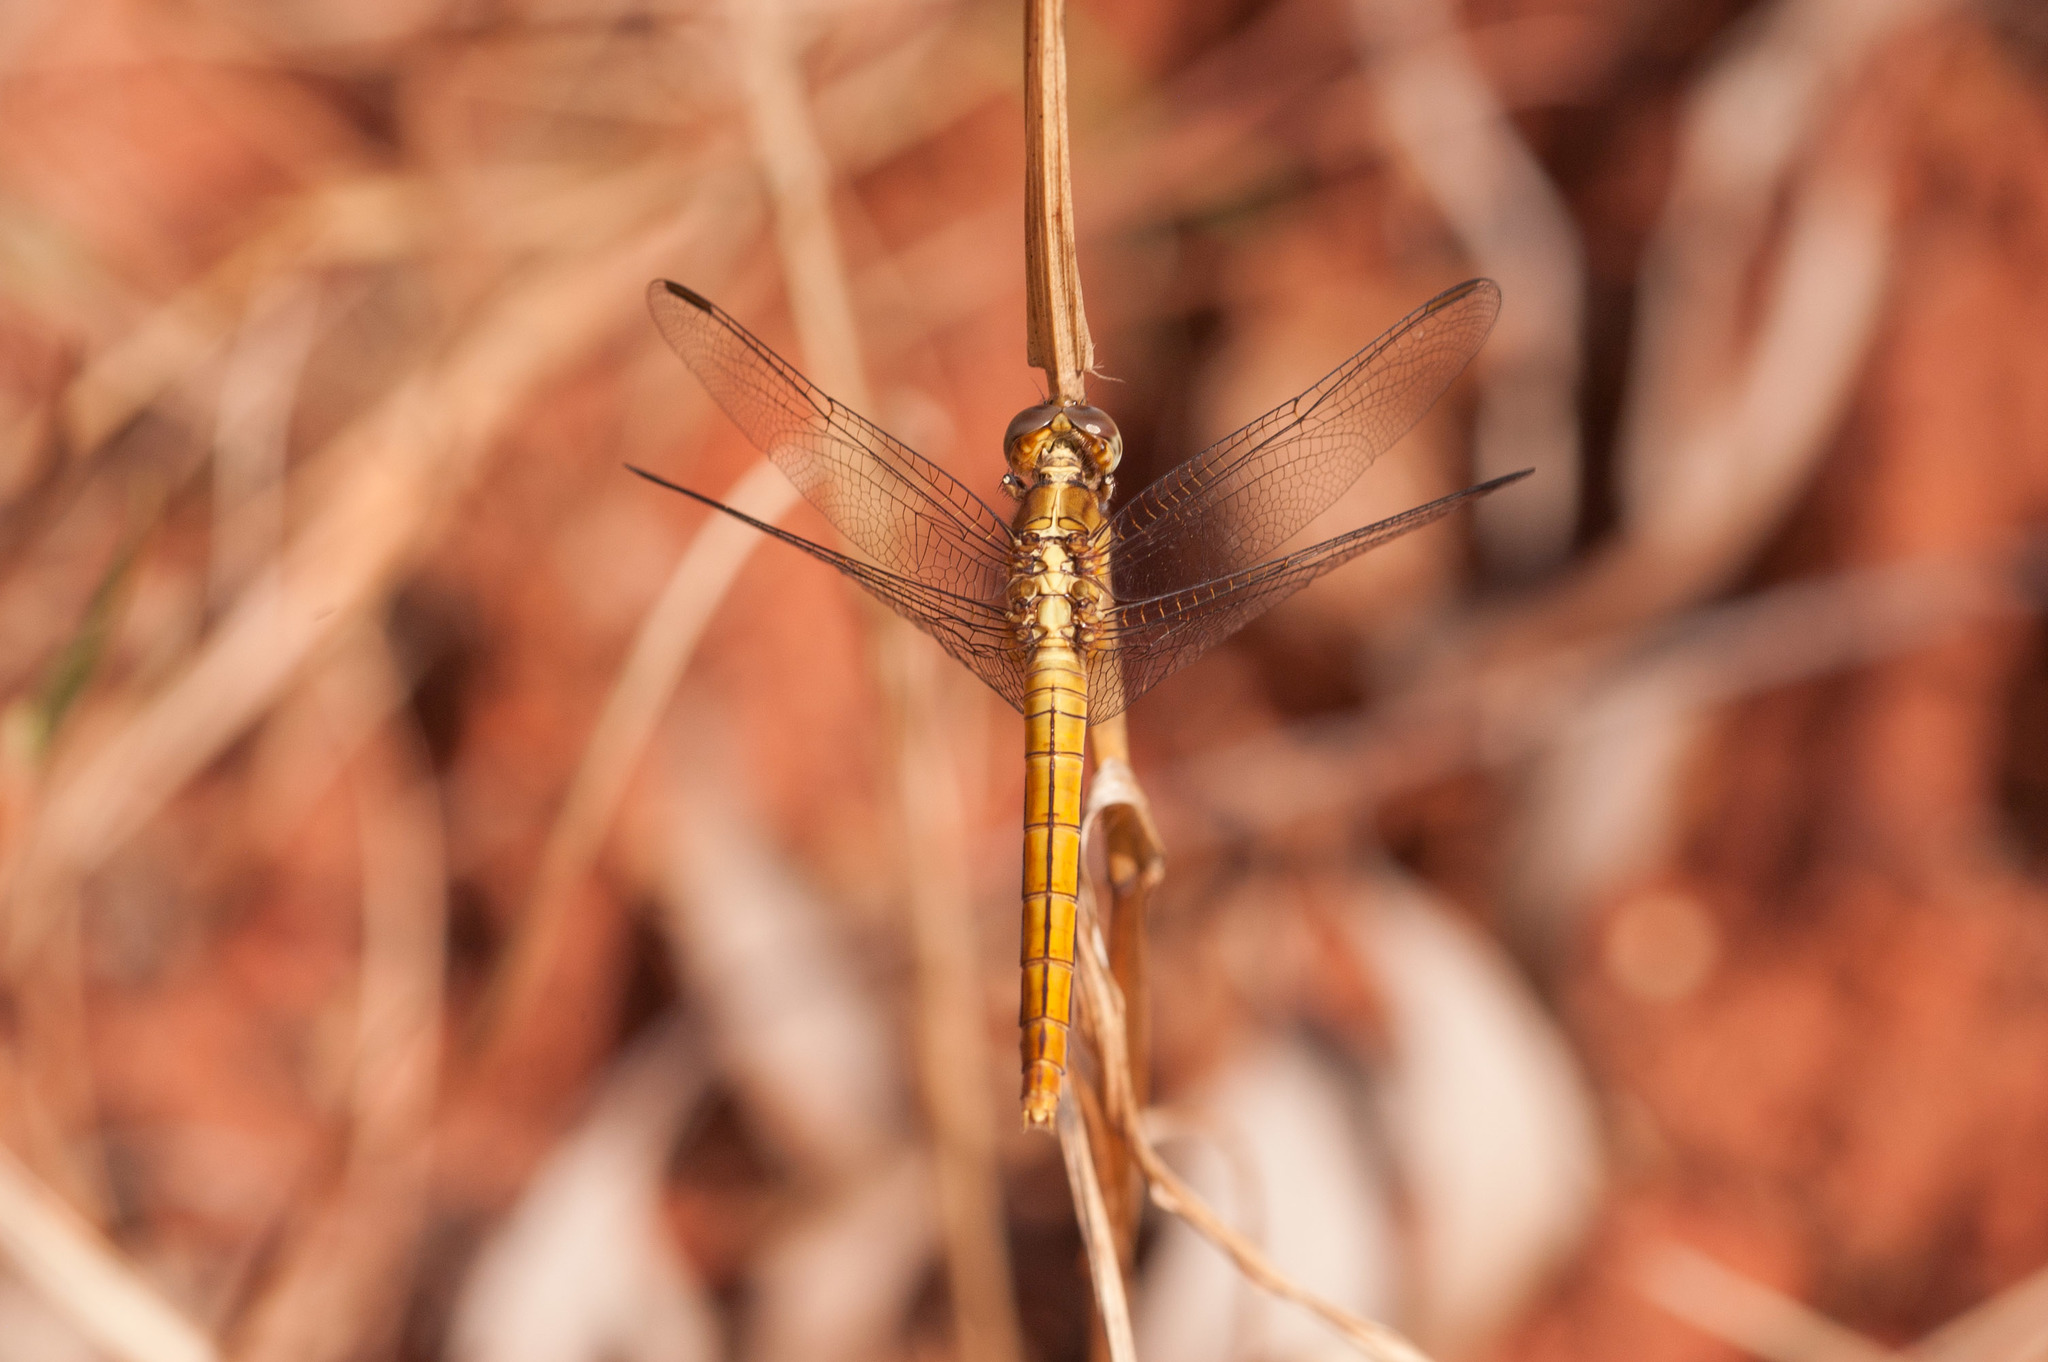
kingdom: Animalia
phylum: Arthropoda
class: Insecta
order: Odonata
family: Libellulidae
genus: Orthetrum
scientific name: Orthetrum migratum
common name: Rosy skimmer
